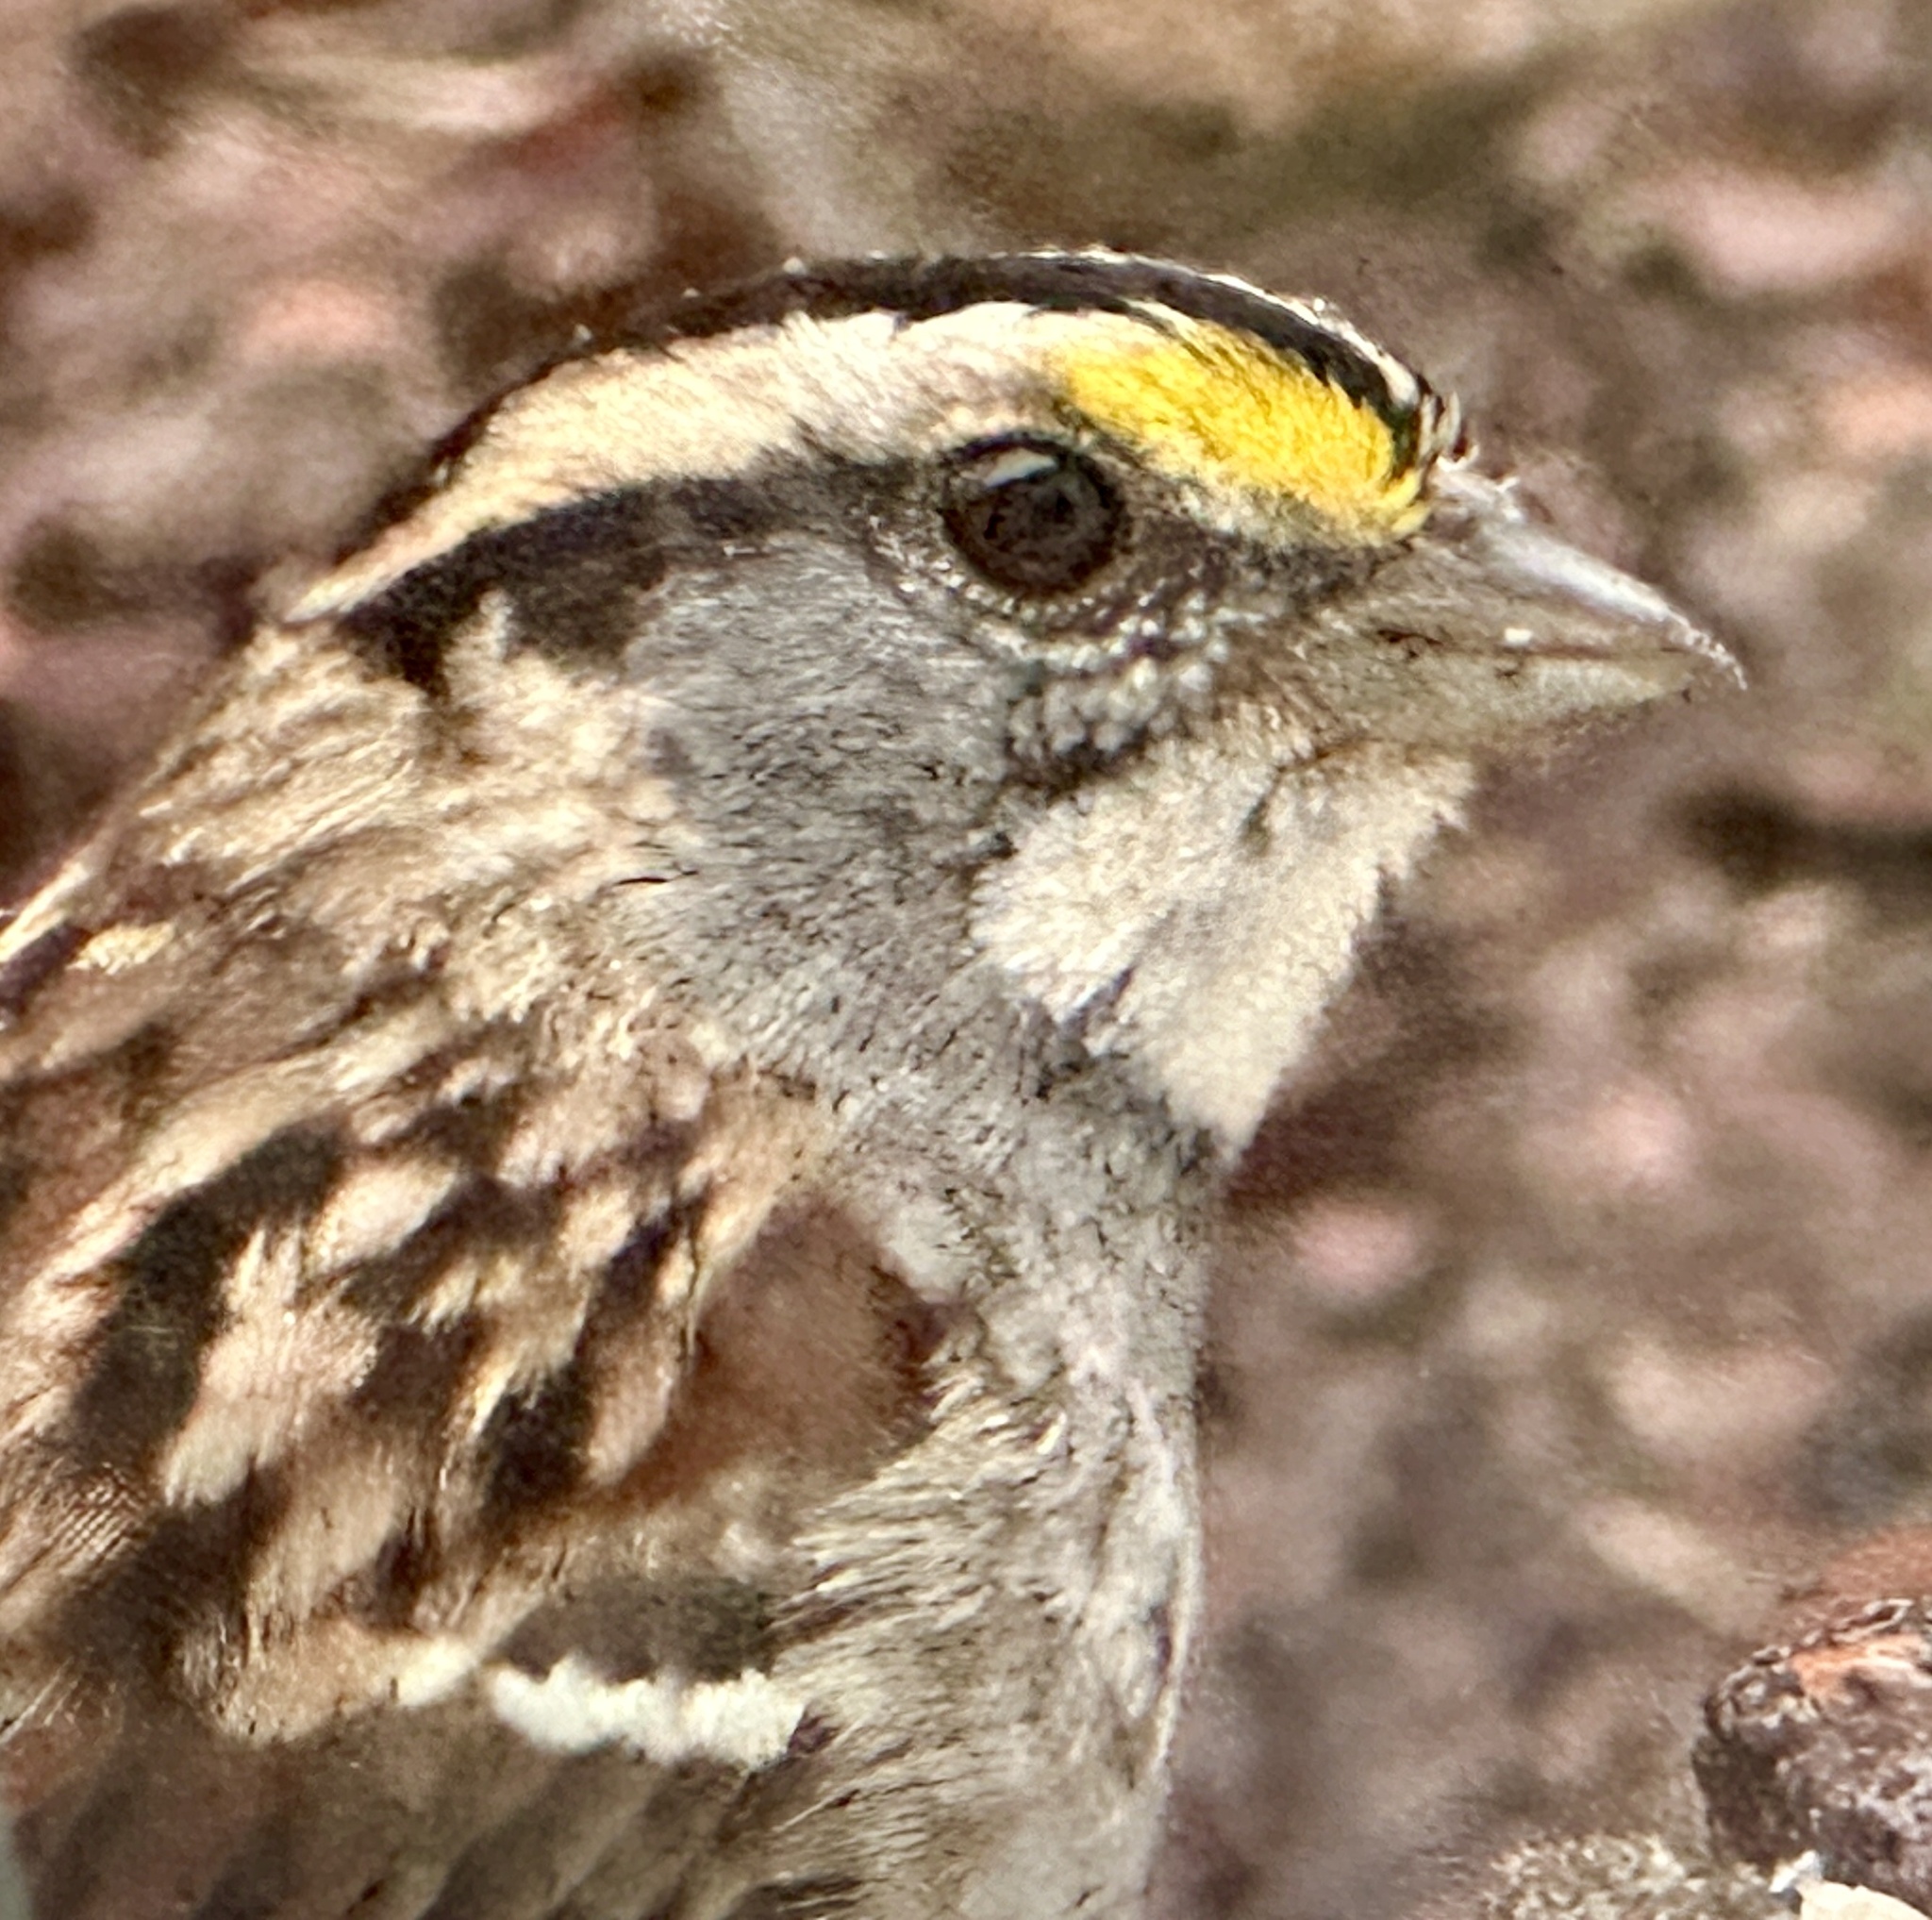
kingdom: Animalia
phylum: Chordata
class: Aves
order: Passeriformes
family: Passerellidae
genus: Zonotrichia
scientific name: Zonotrichia albicollis
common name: White-throated sparrow
